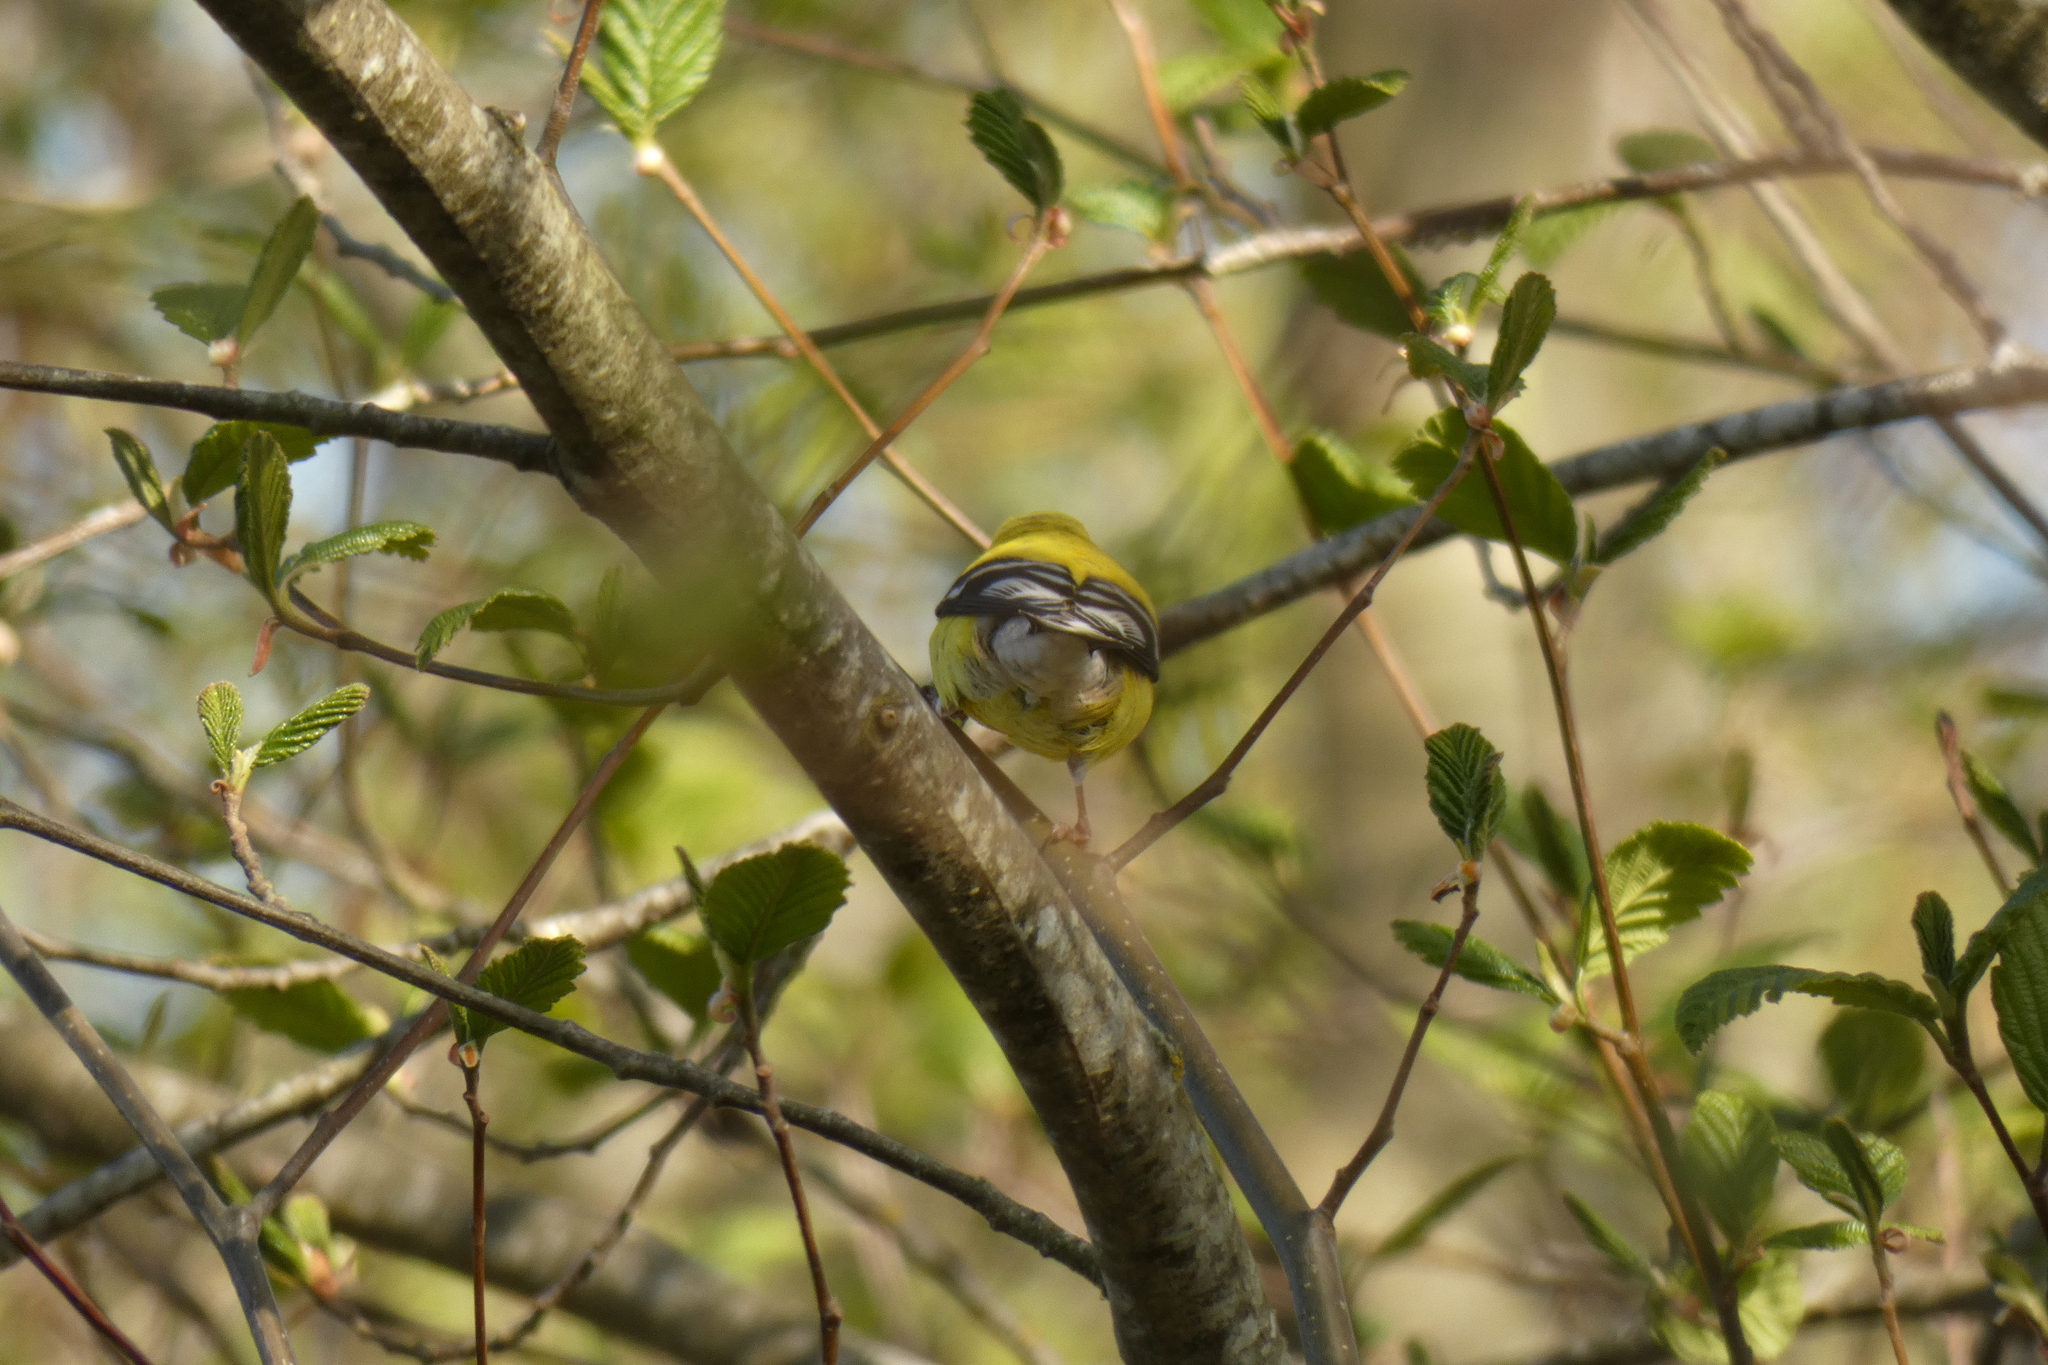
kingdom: Animalia
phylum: Chordata
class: Aves
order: Passeriformes
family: Fringillidae
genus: Spinus
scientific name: Spinus tristis
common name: American goldfinch
